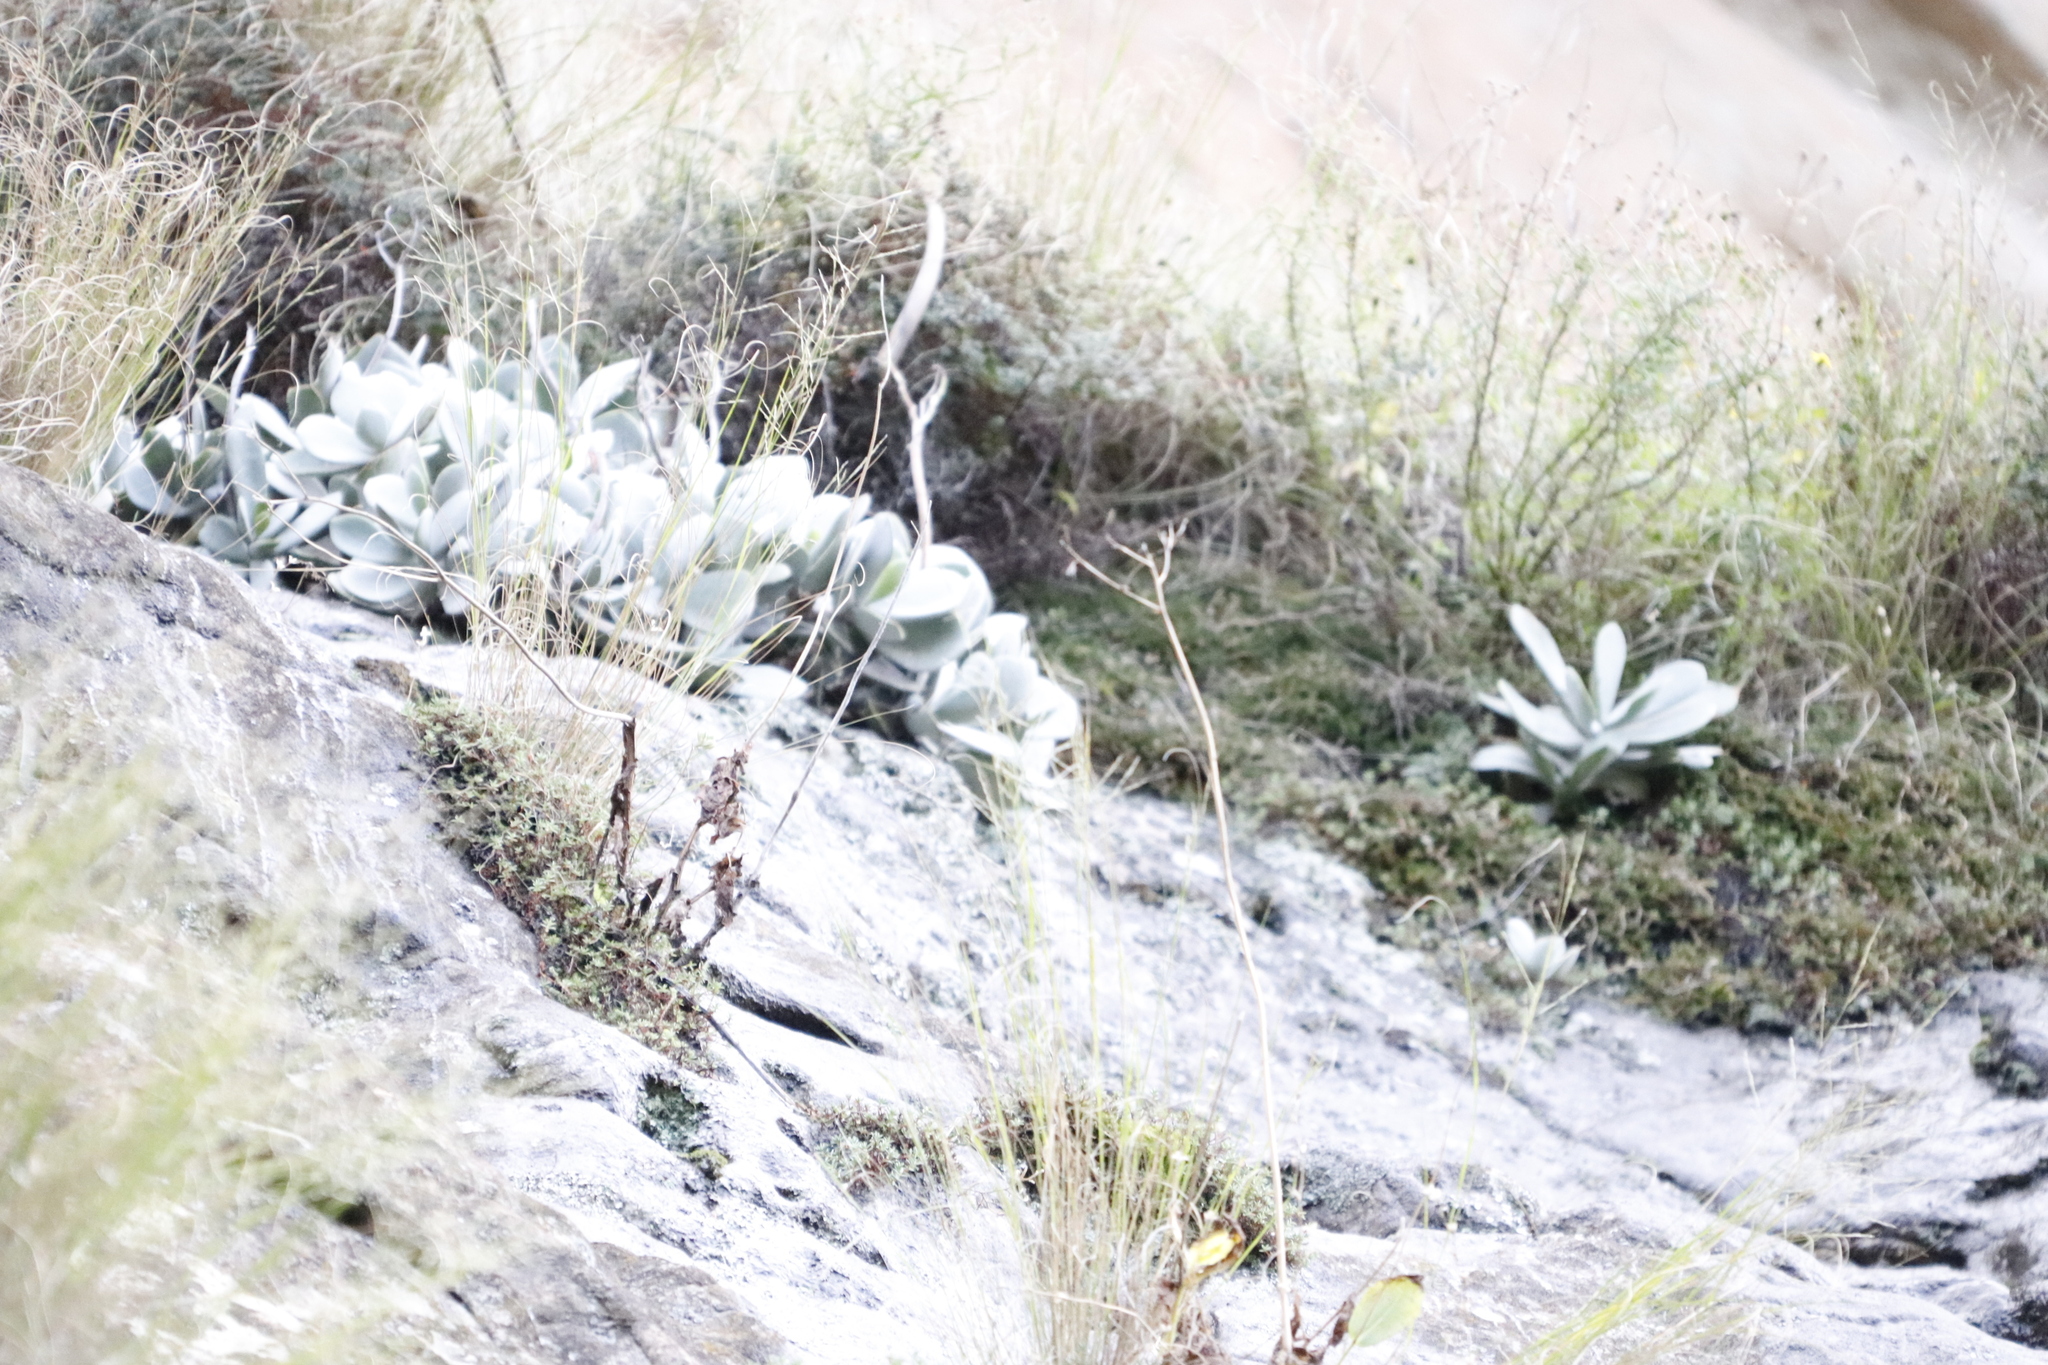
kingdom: Plantae
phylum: Tracheophyta
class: Magnoliopsida
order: Saxifragales
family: Crassulaceae
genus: Cotyledon
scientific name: Cotyledon orbiculata
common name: Pig's ear
